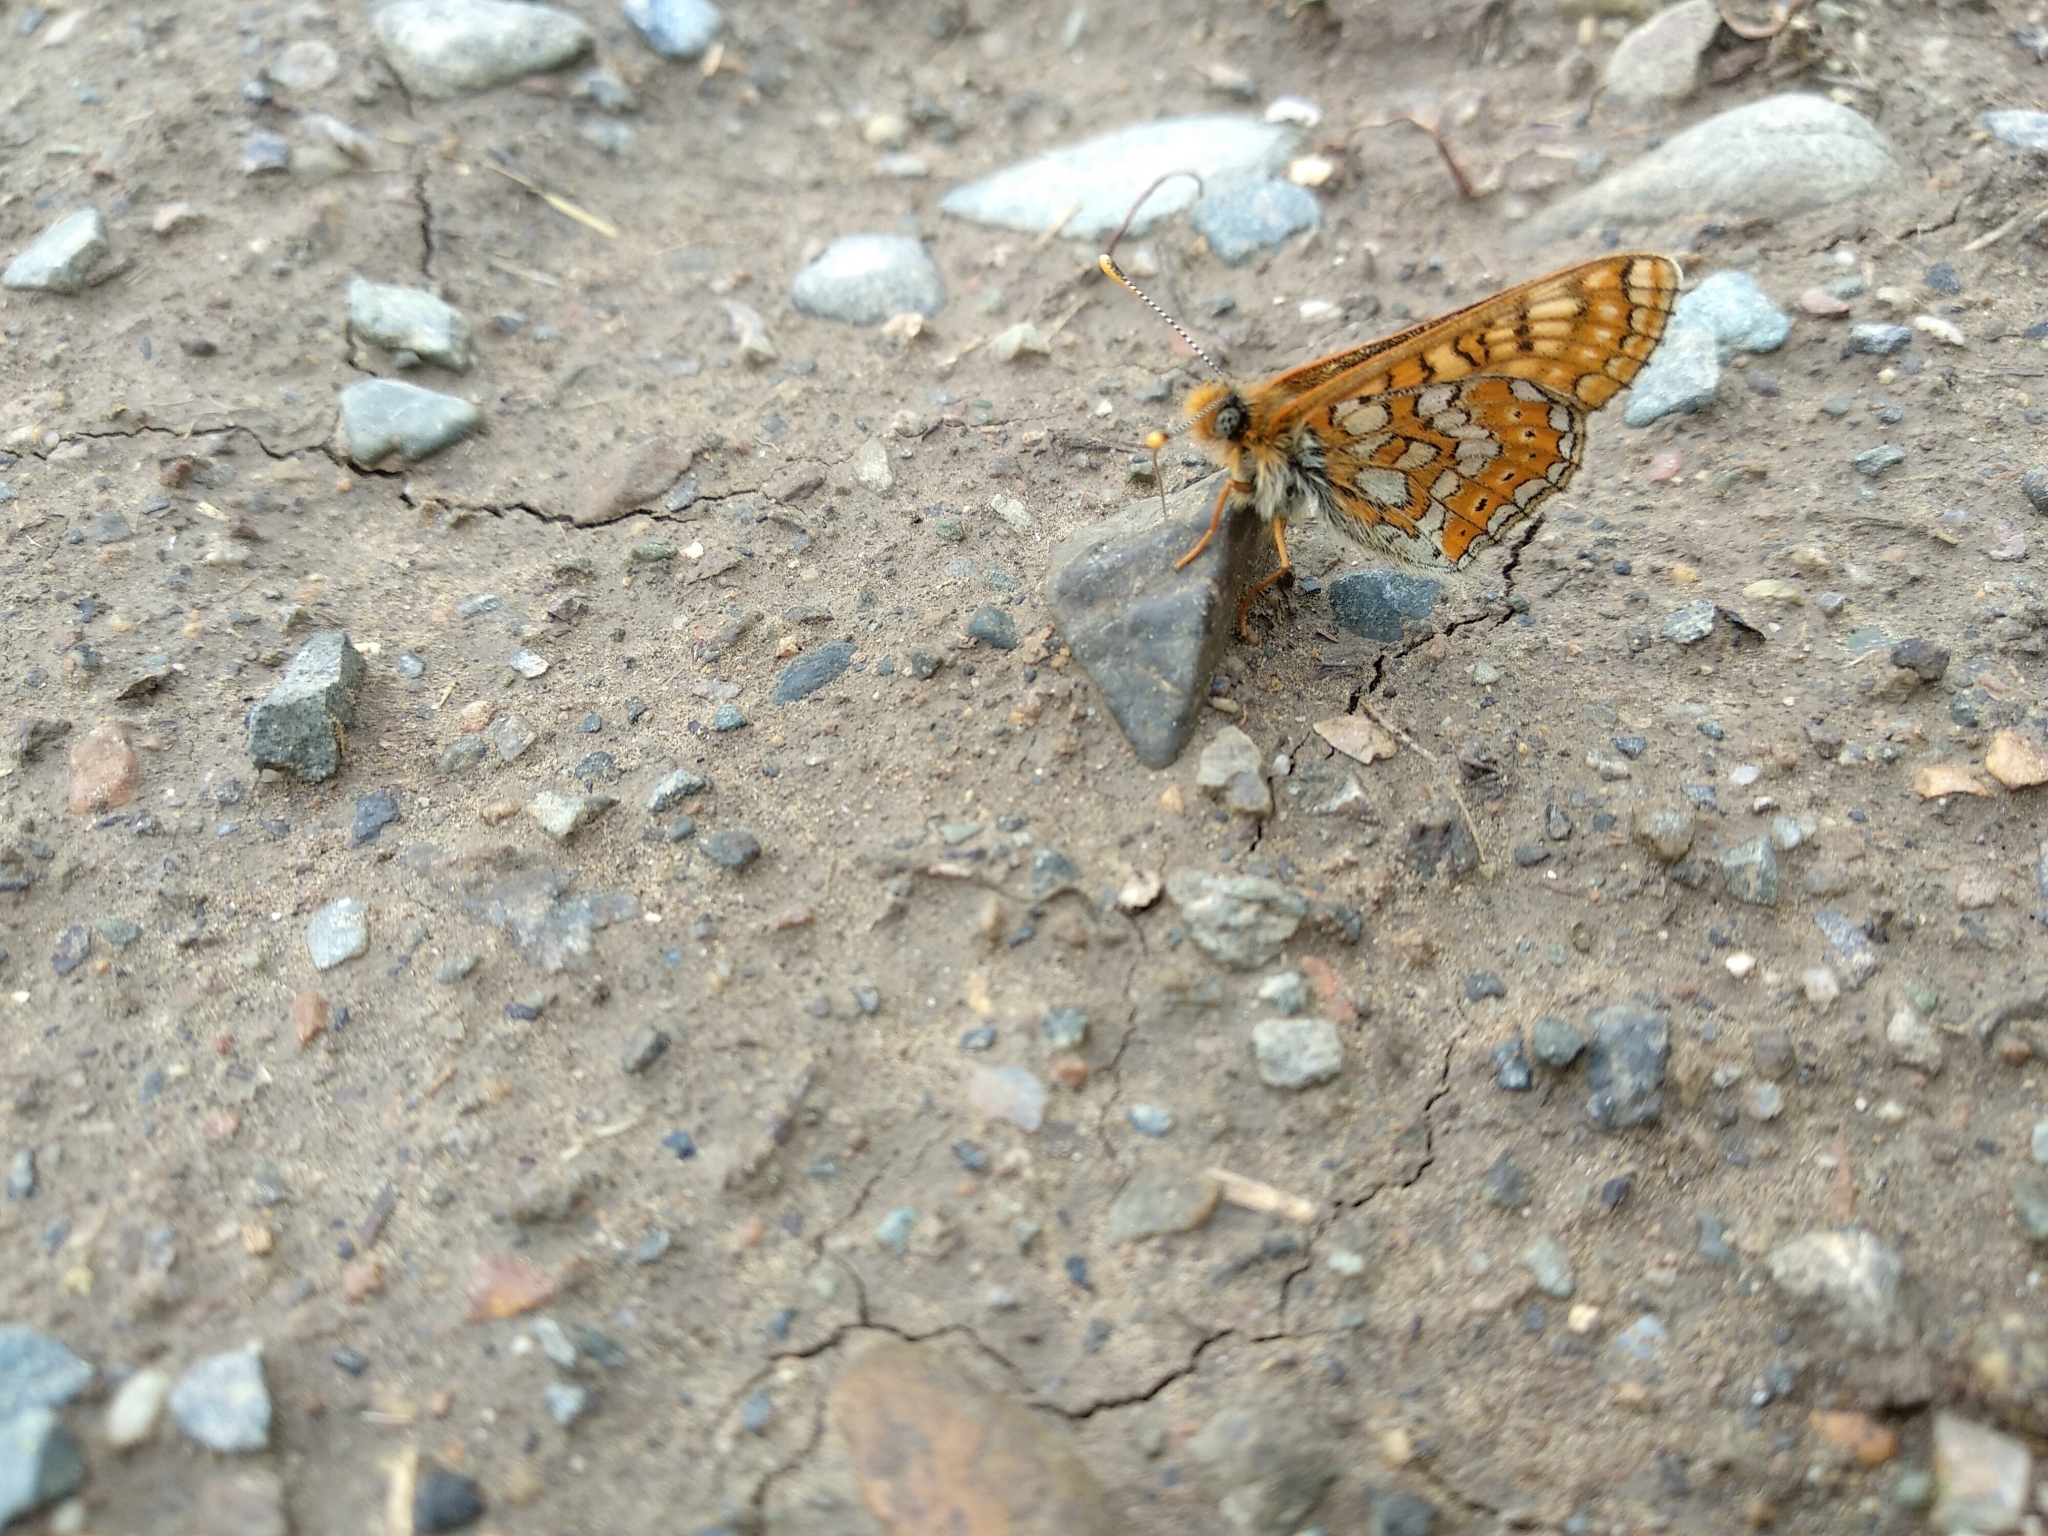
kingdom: Animalia
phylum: Arthropoda
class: Insecta
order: Lepidoptera
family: Nymphalidae
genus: Euphydryas
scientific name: Euphydryas aurinia
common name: Marsh fritillary
